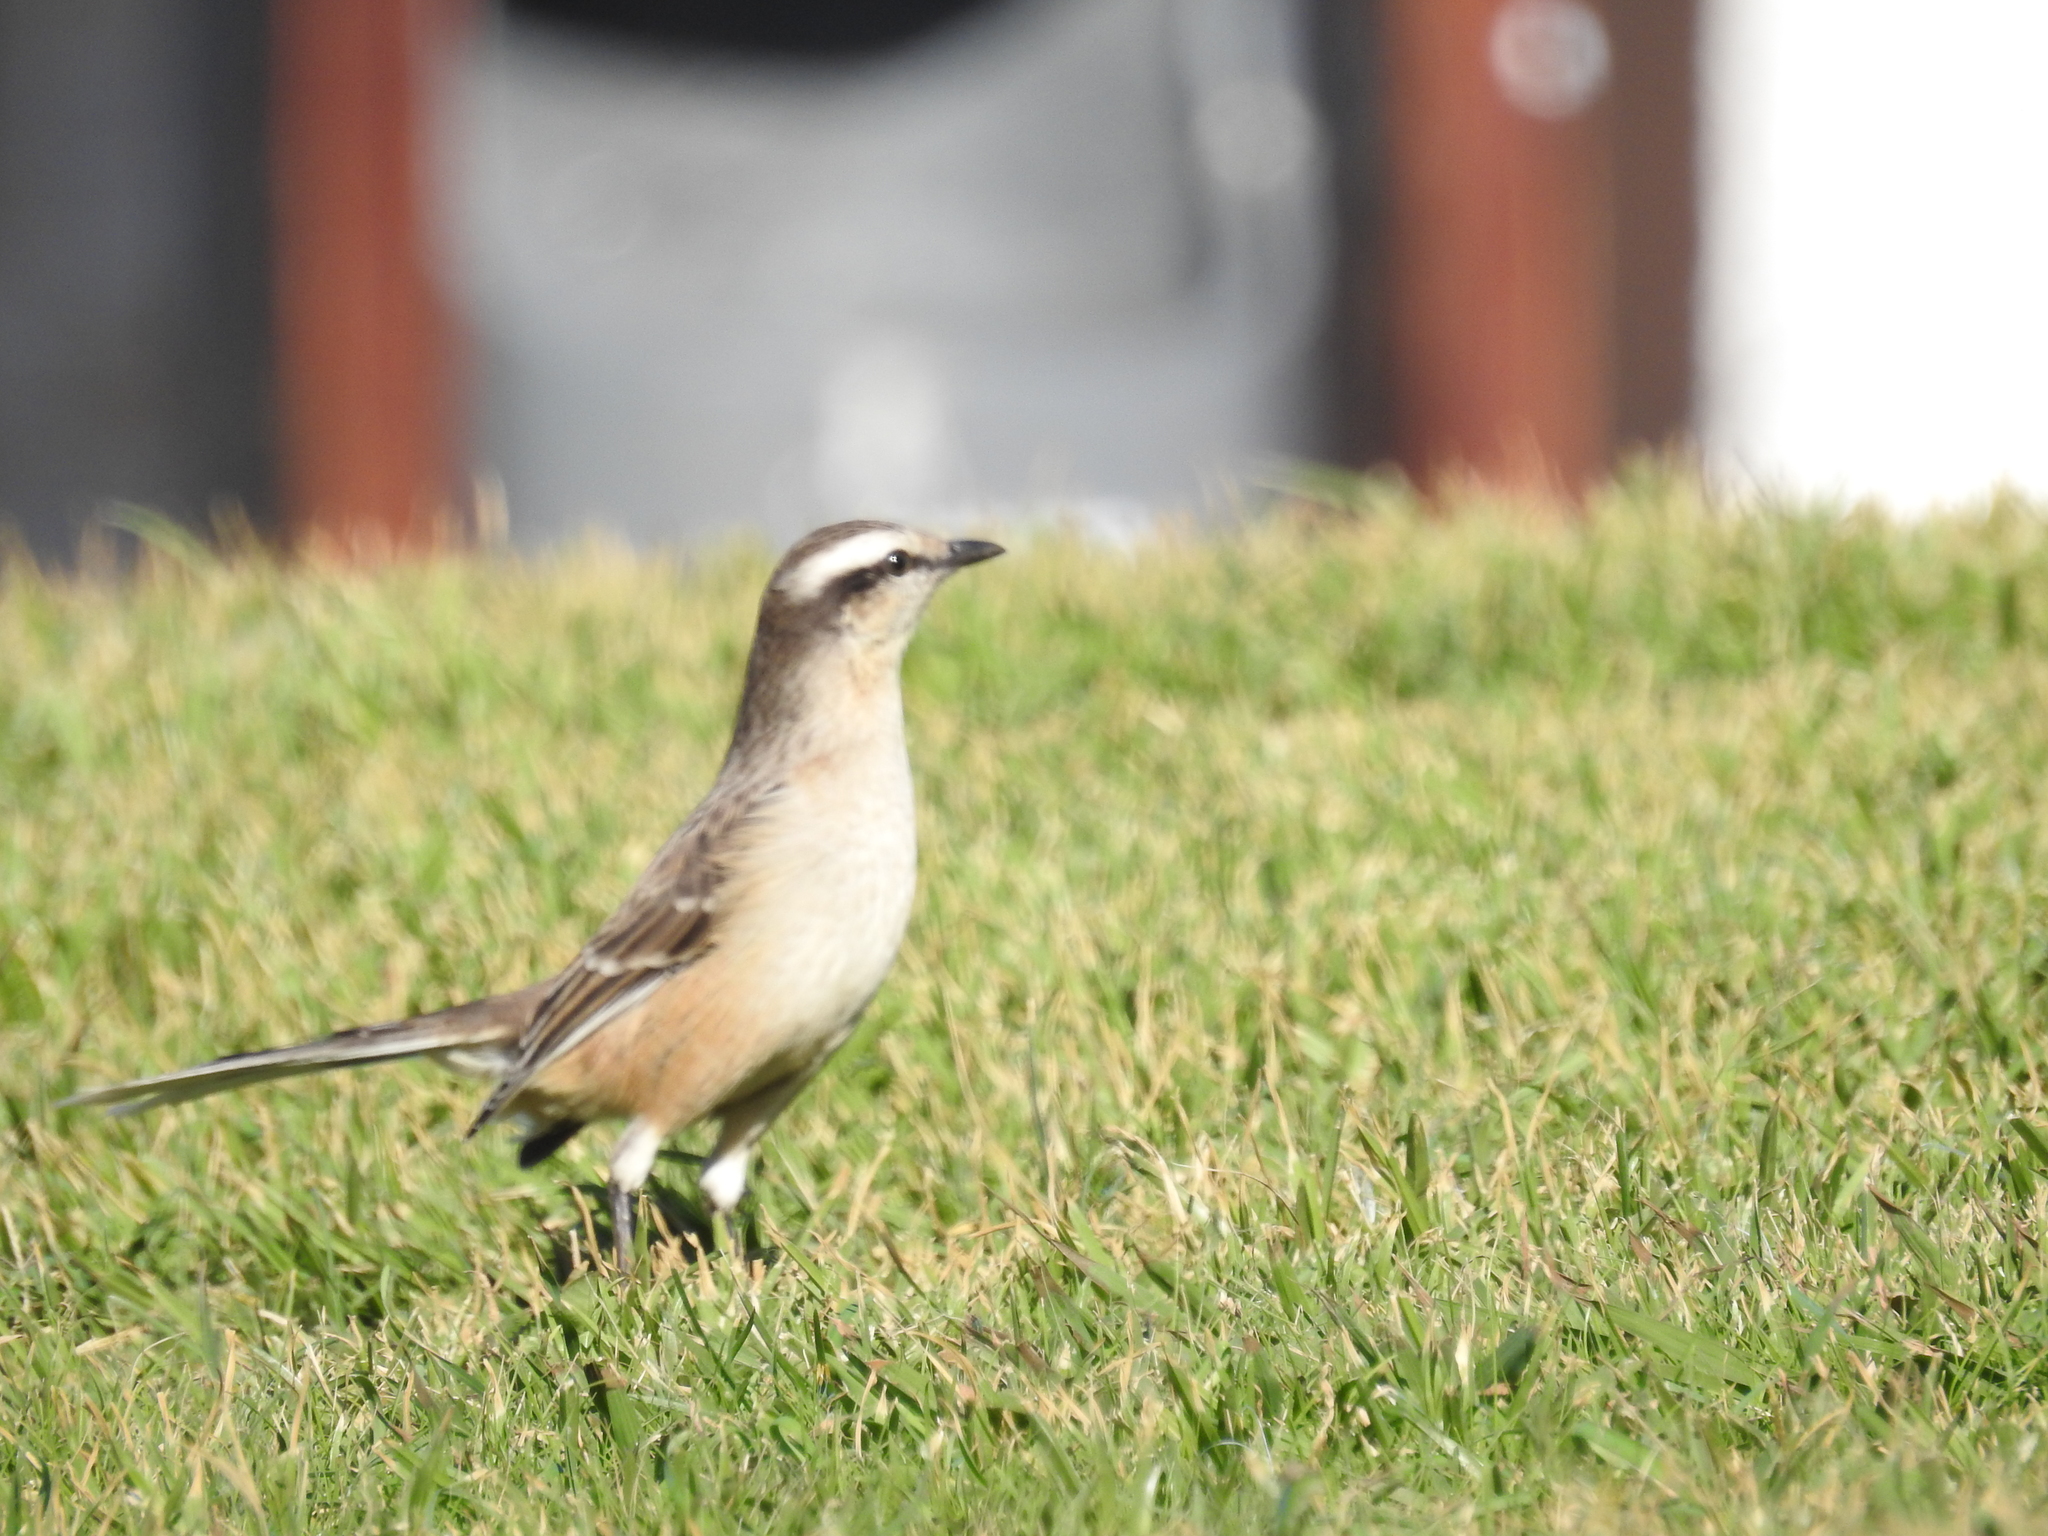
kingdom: Animalia
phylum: Chordata
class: Aves
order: Passeriformes
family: Mimidae
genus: Mimus
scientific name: Mimus saturninus
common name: Chalk-browed mockingbird
